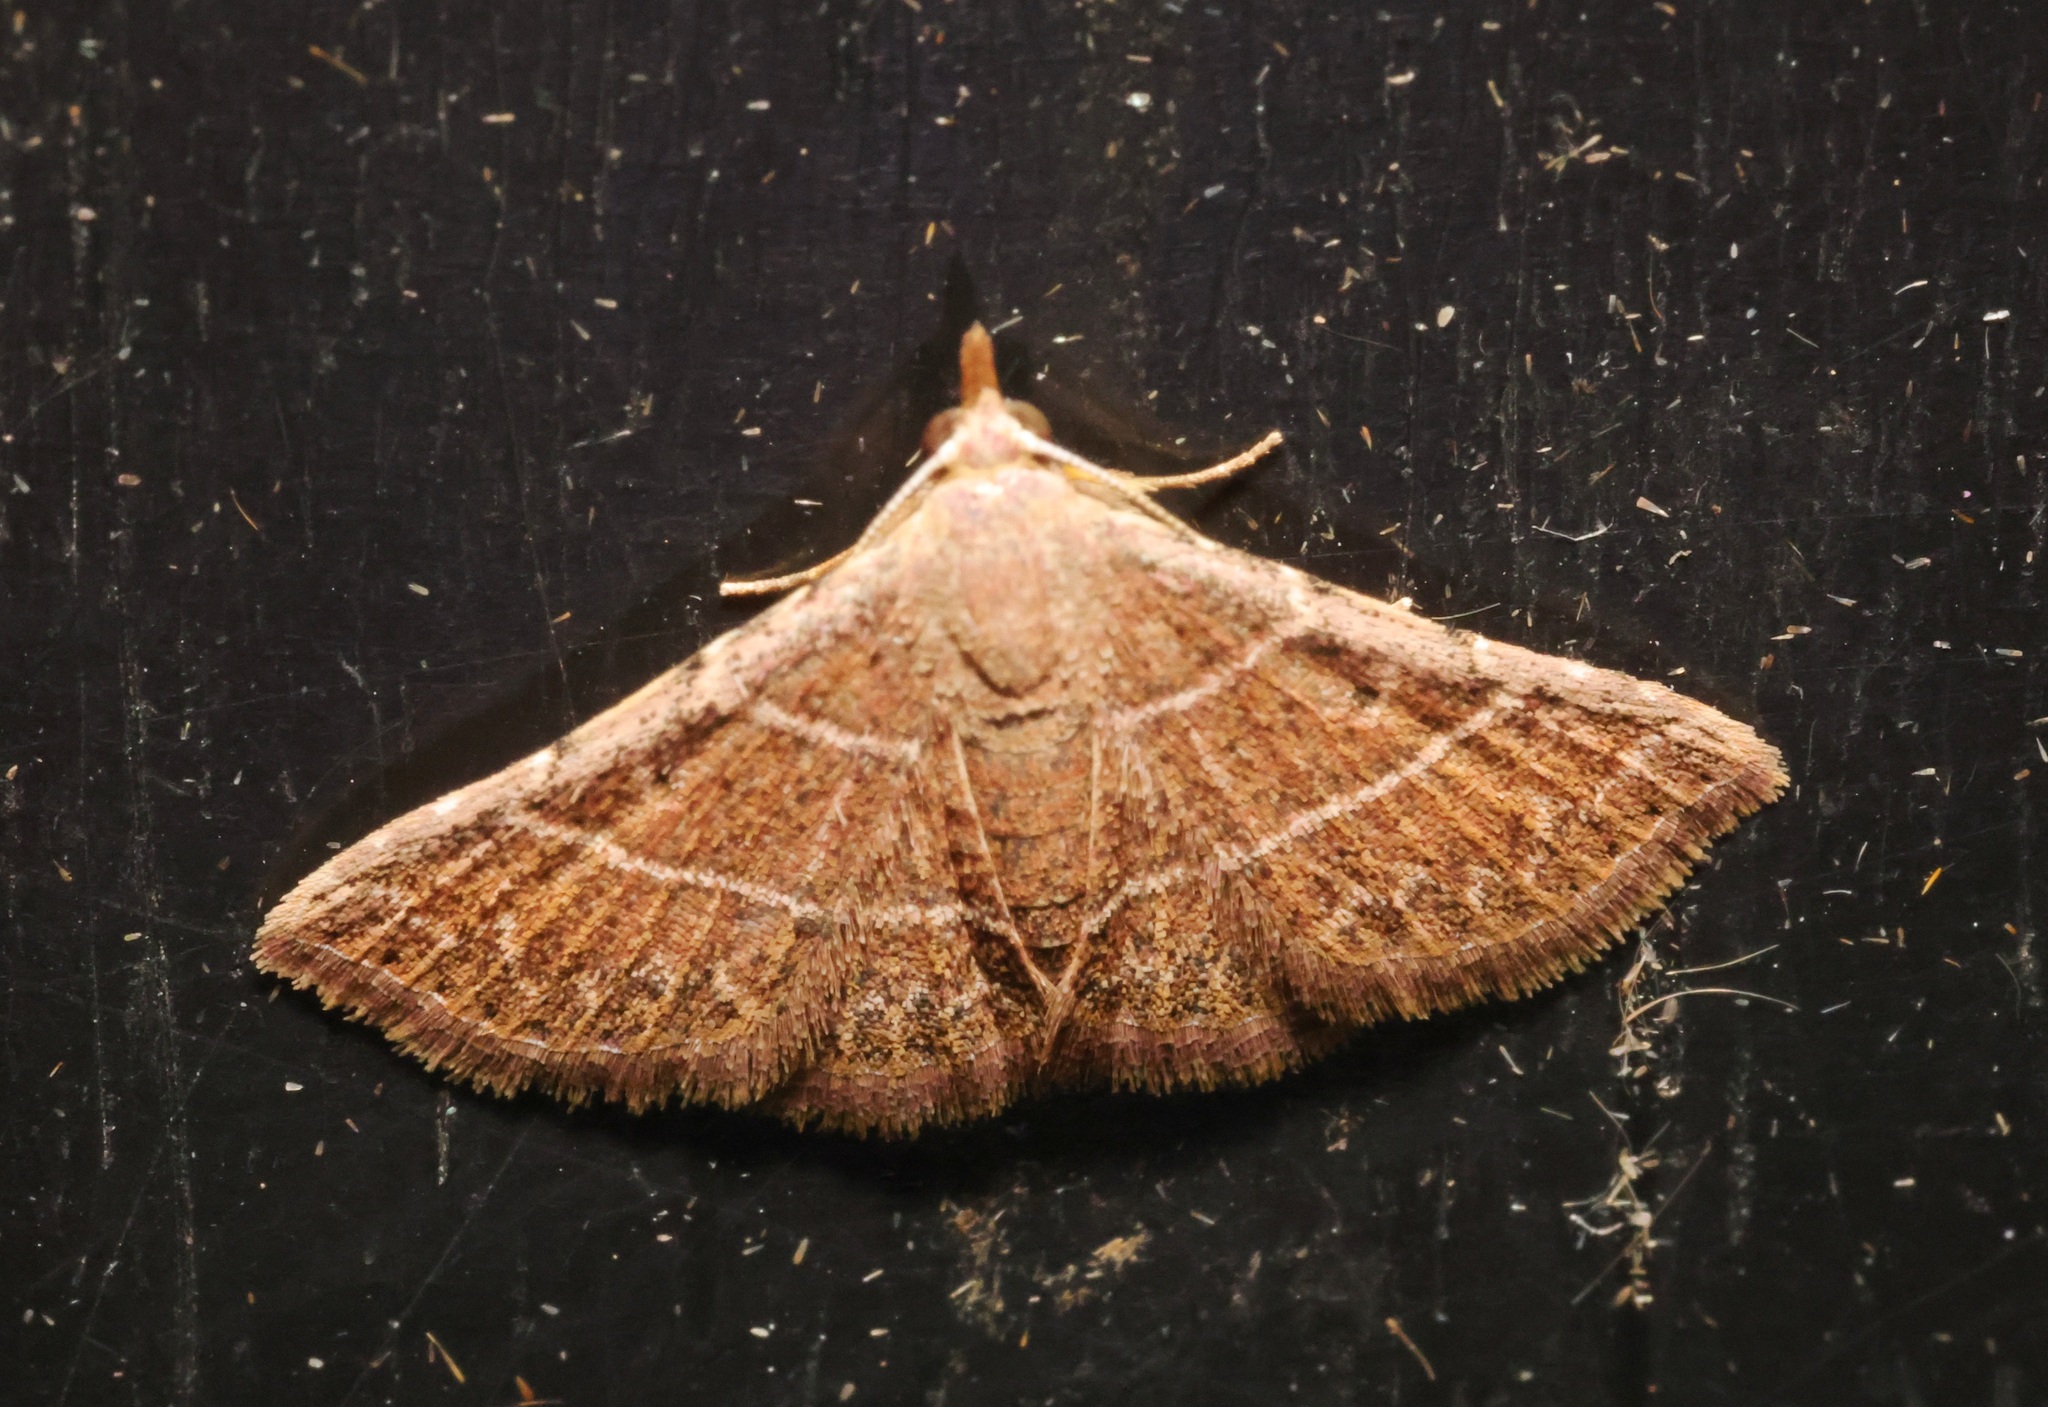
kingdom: Animalia
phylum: Arthropoda
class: Insecta
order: Lepidoptera
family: Erebidae
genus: Corgatha
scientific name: Corgatha dictaria
